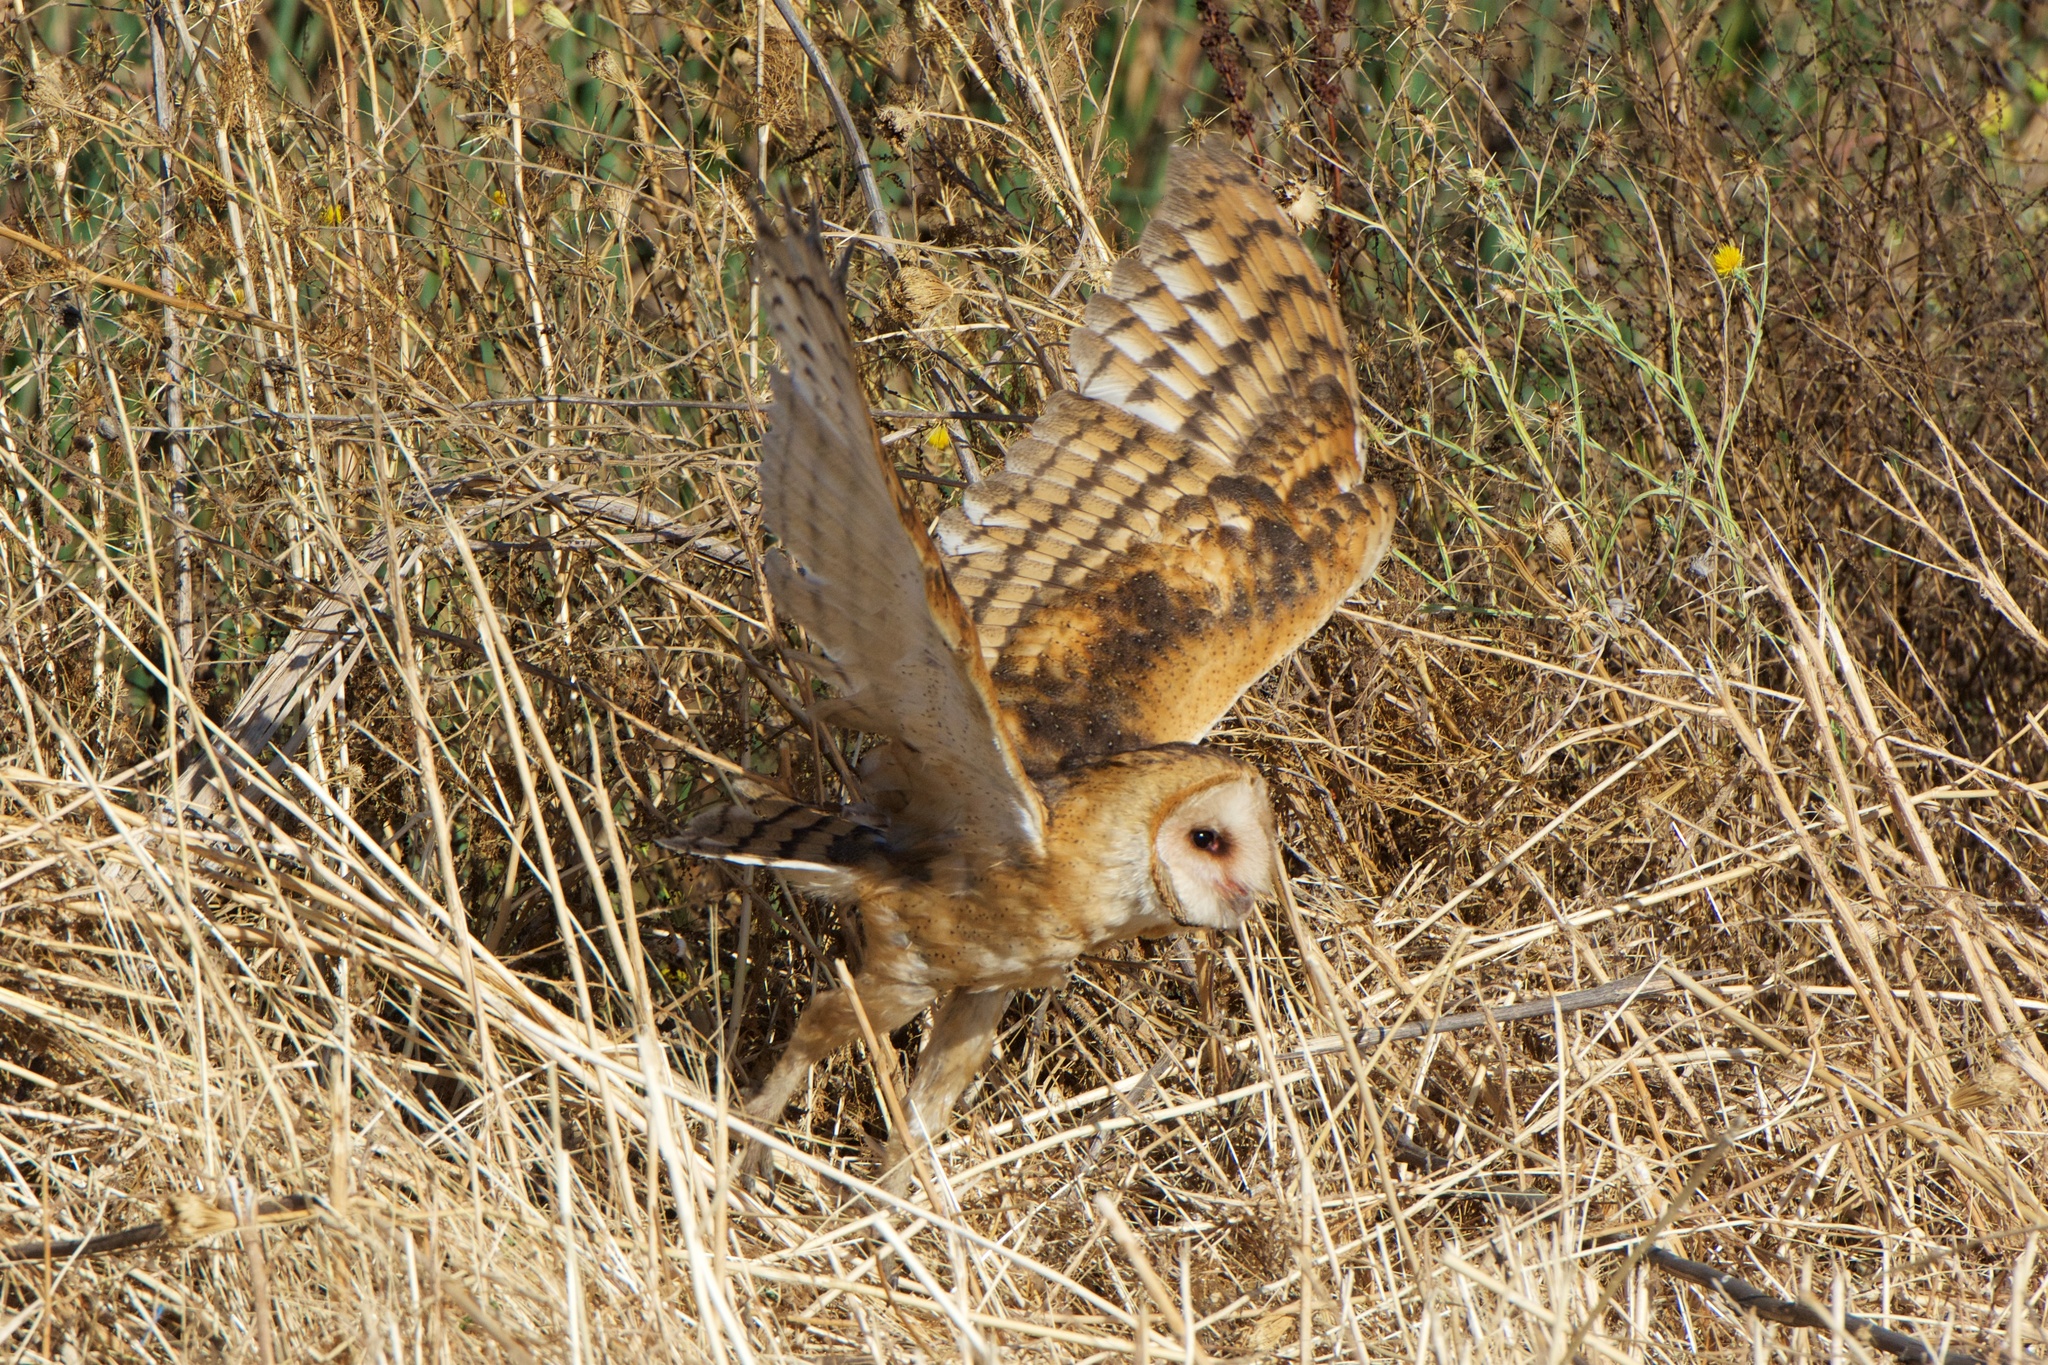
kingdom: Animalia
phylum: Chordata
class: Aves
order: Strigiformes
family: Tytonidae
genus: Tyto
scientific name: Tyto alba
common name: Barn owl
